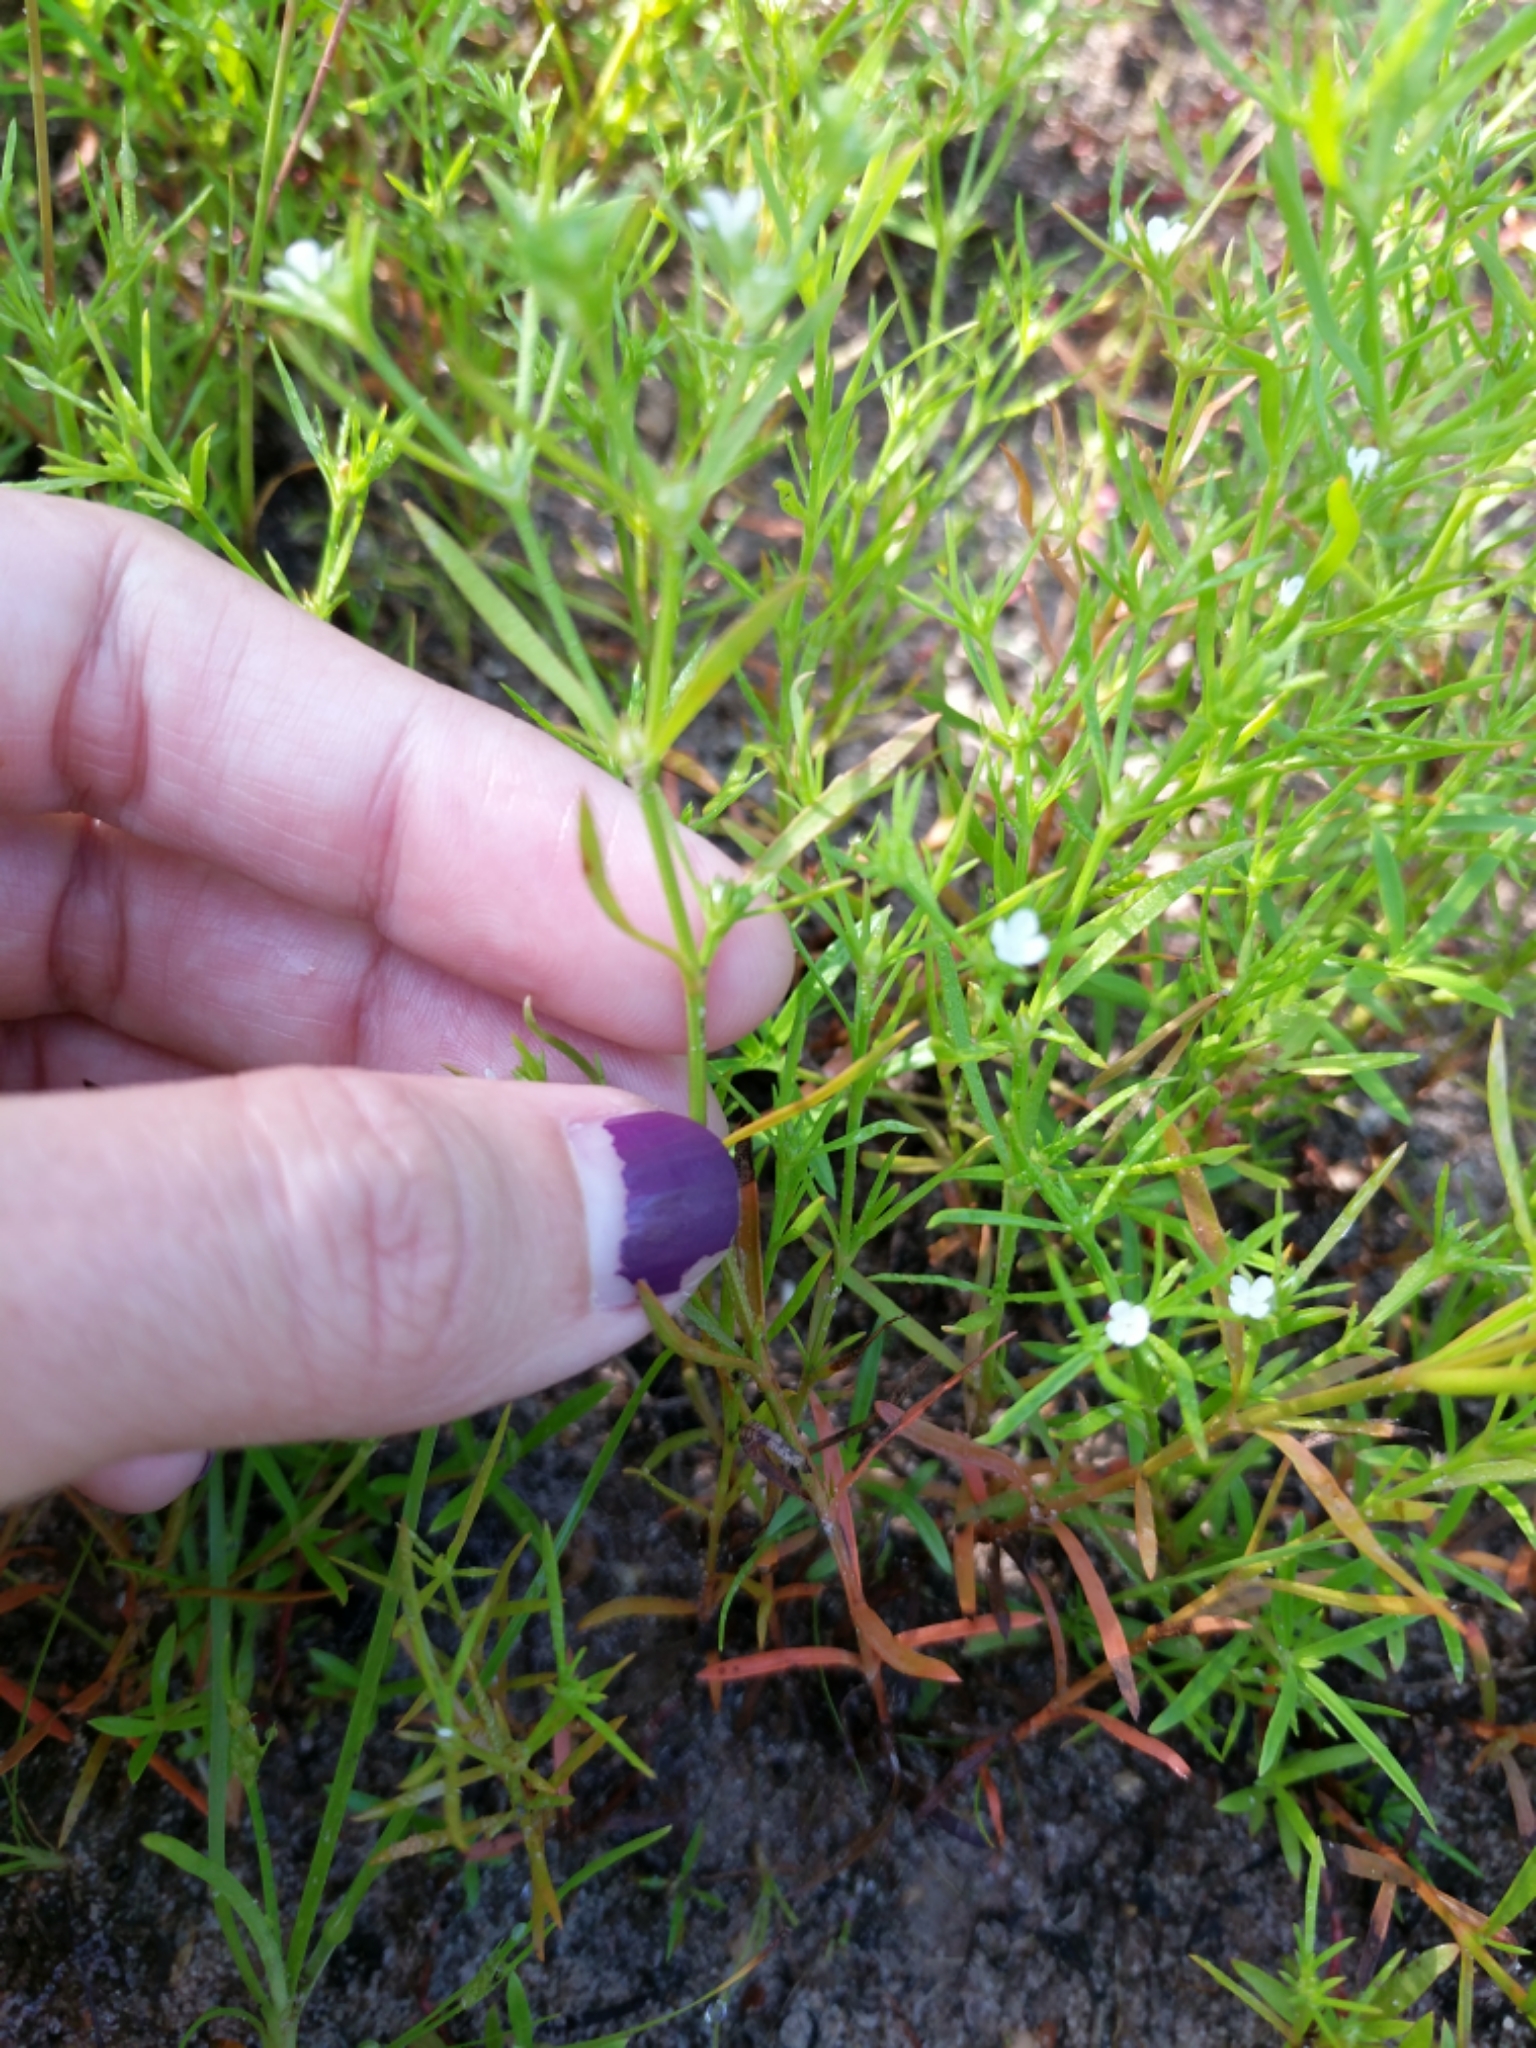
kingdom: Plantae
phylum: Tracheophyta
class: Magnoliopsida
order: Lamiales
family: Tetrachondraceae
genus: Polypremum
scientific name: Polypremum procumbens
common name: Juniper-leaf
